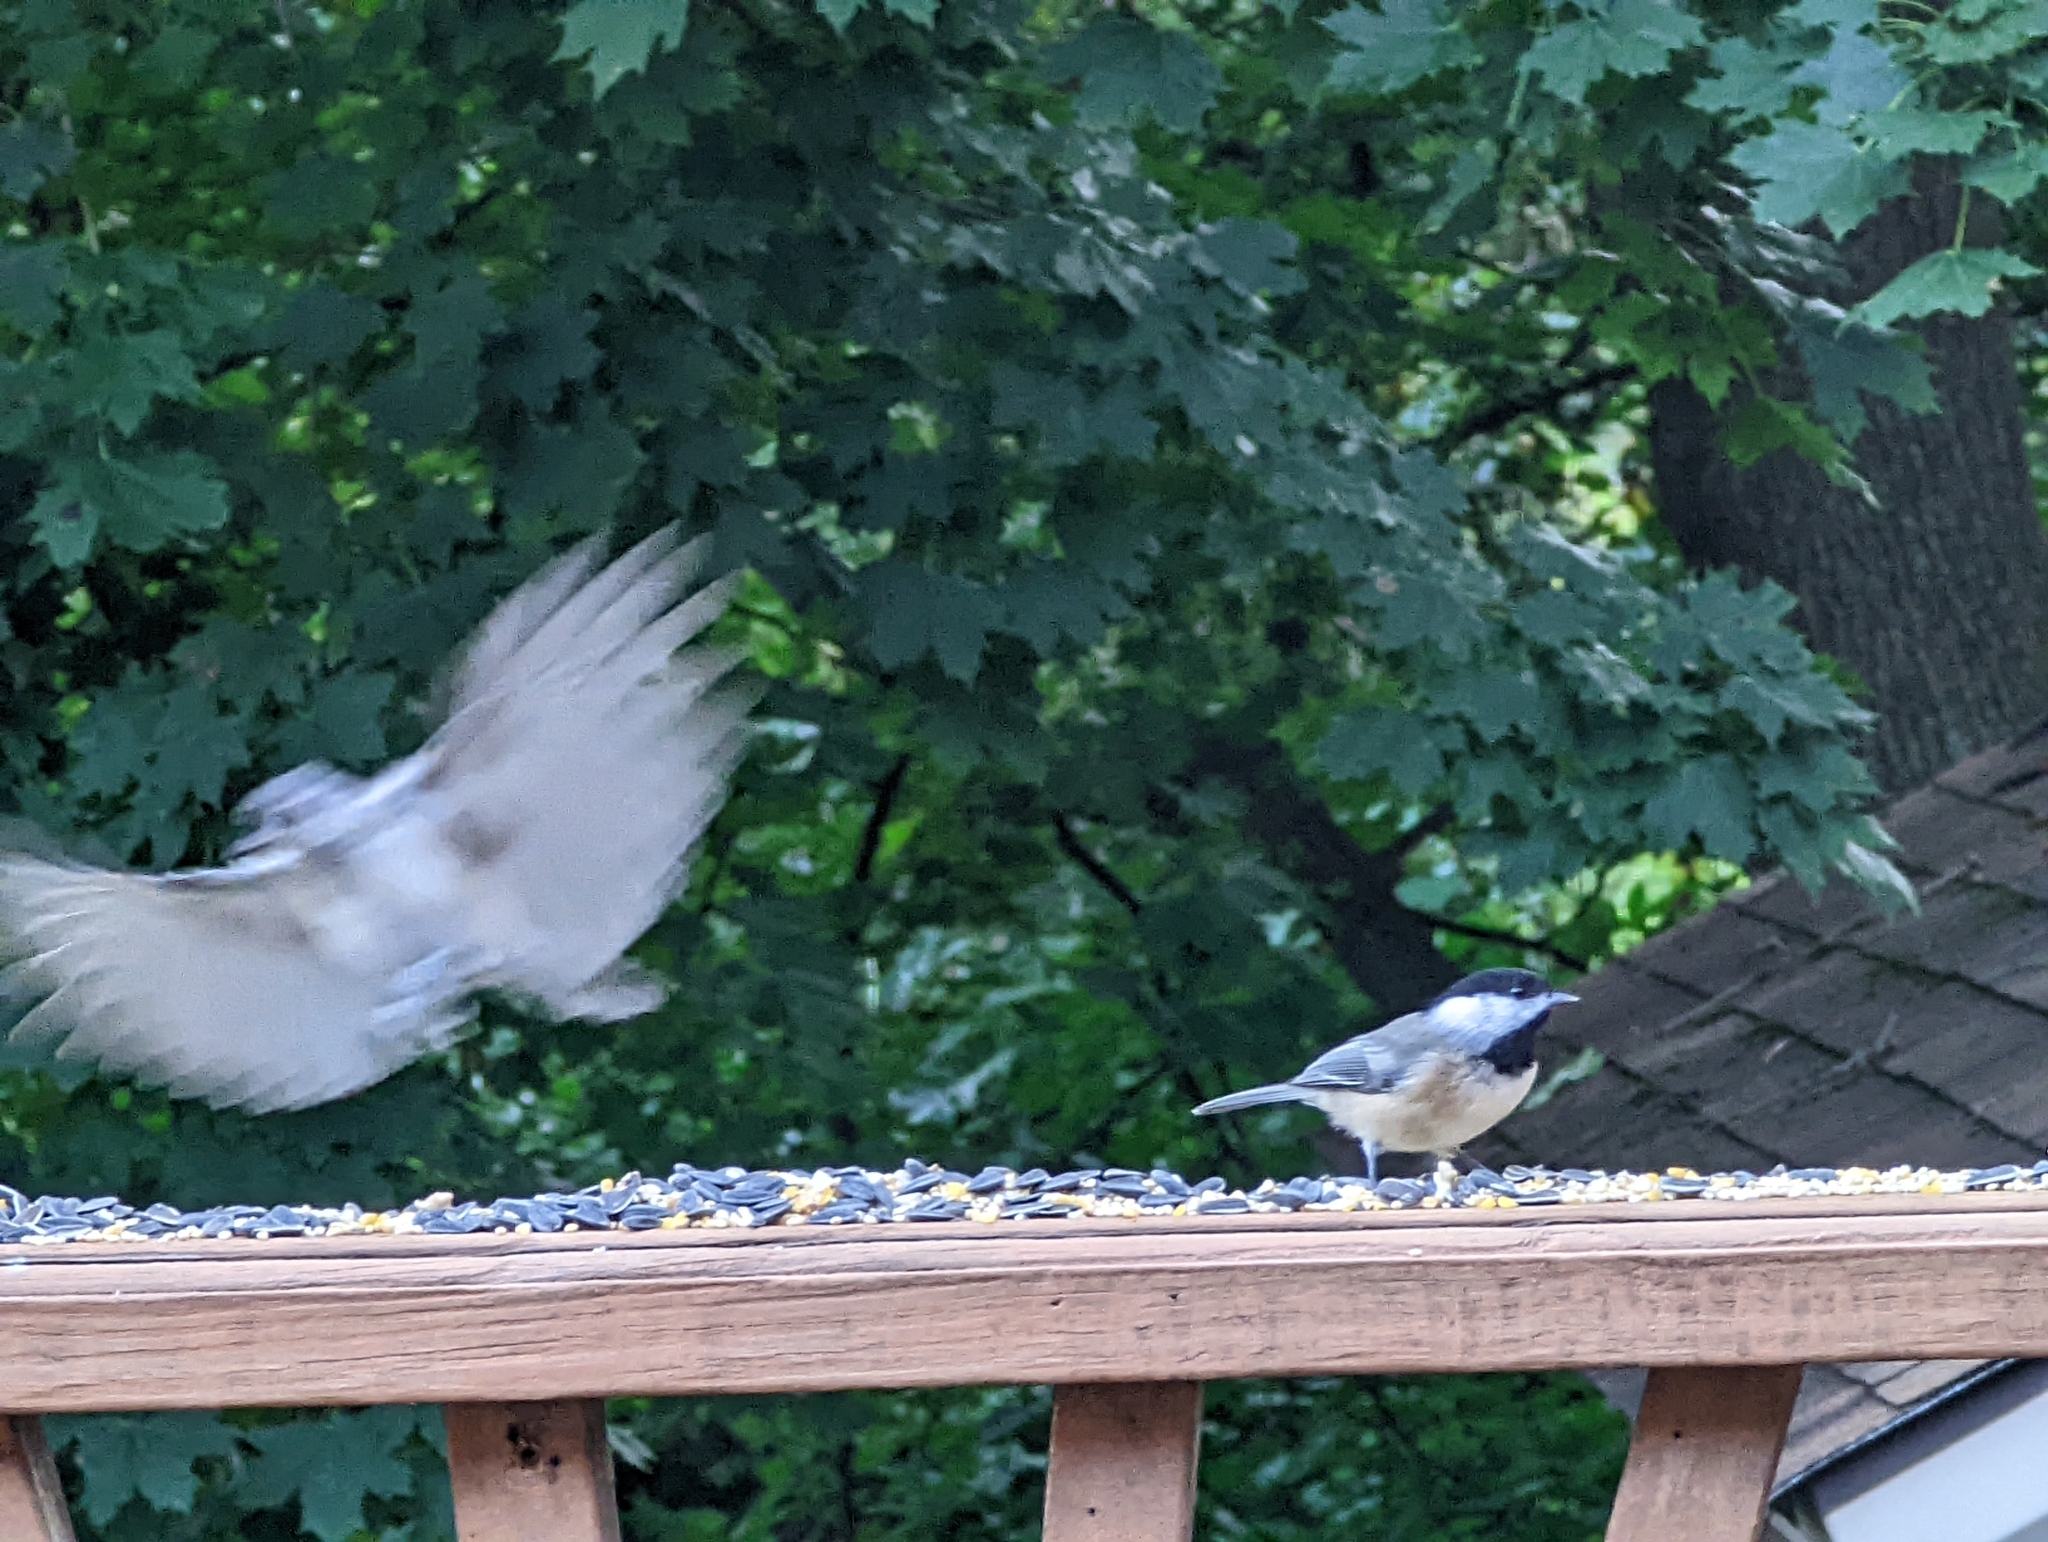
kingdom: Animalia
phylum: Chordata
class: Aves
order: Passeriformes
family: Paridae
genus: Baeolophus
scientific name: Baeolophus bicolor
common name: Tufted titmouse
